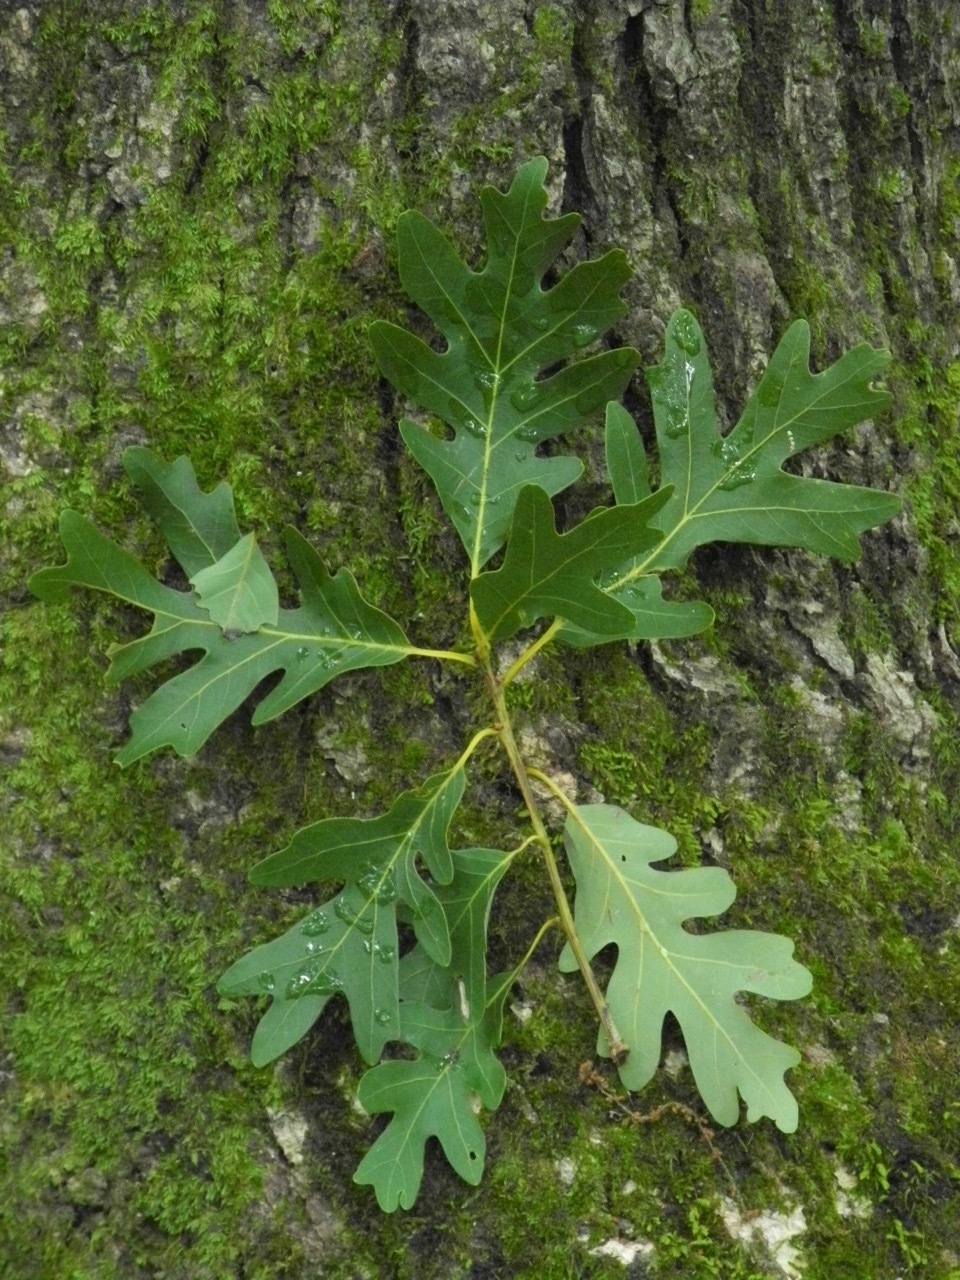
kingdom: Plantae
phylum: Tracheophyta
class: Magnoliopsida
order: Fagales
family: Fagaceae
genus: Quercus
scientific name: Quercus alba
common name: White oak
